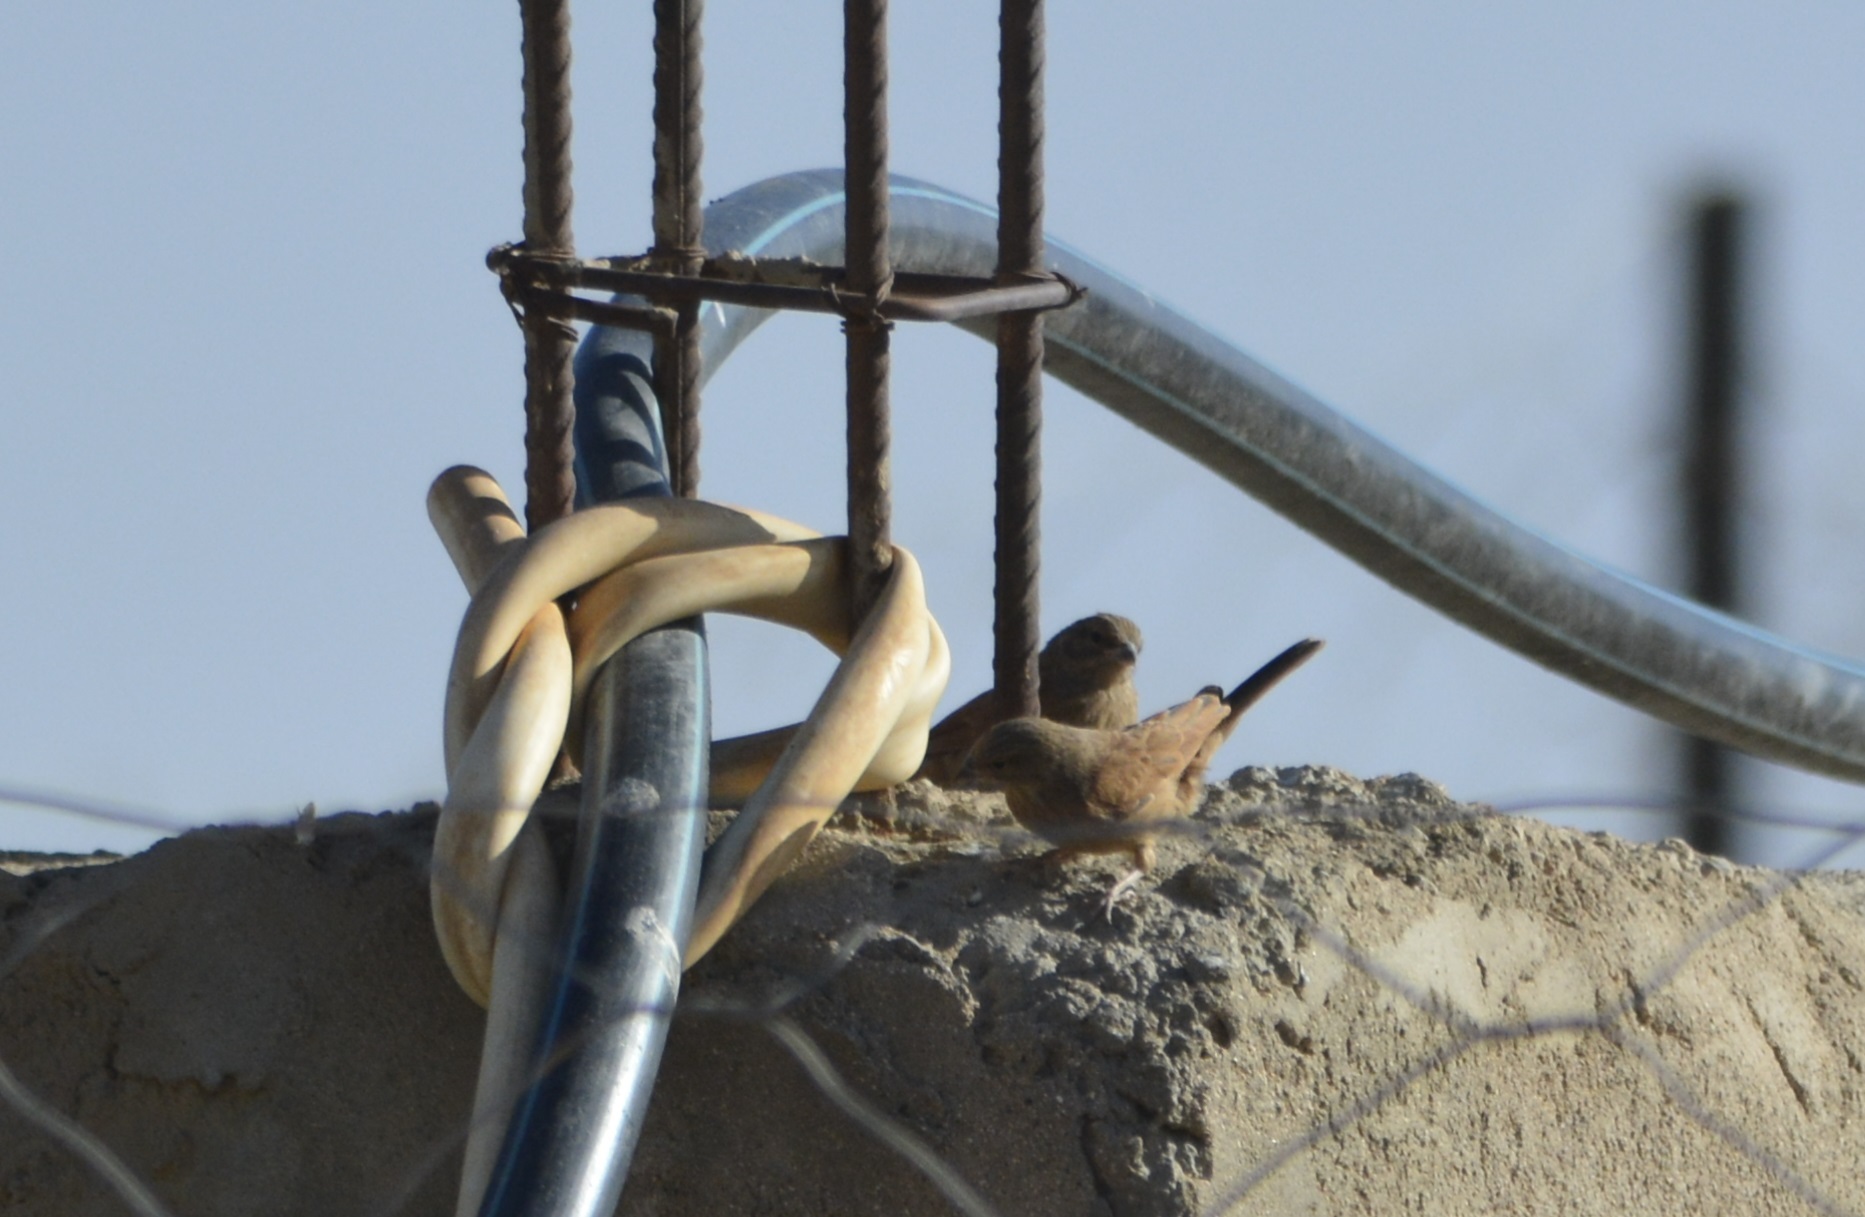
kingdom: Animalia
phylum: Chordata
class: Aves
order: Passeriformes
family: Emberizidae
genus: Emberiza
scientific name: Emberiza sahari
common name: House bunting
